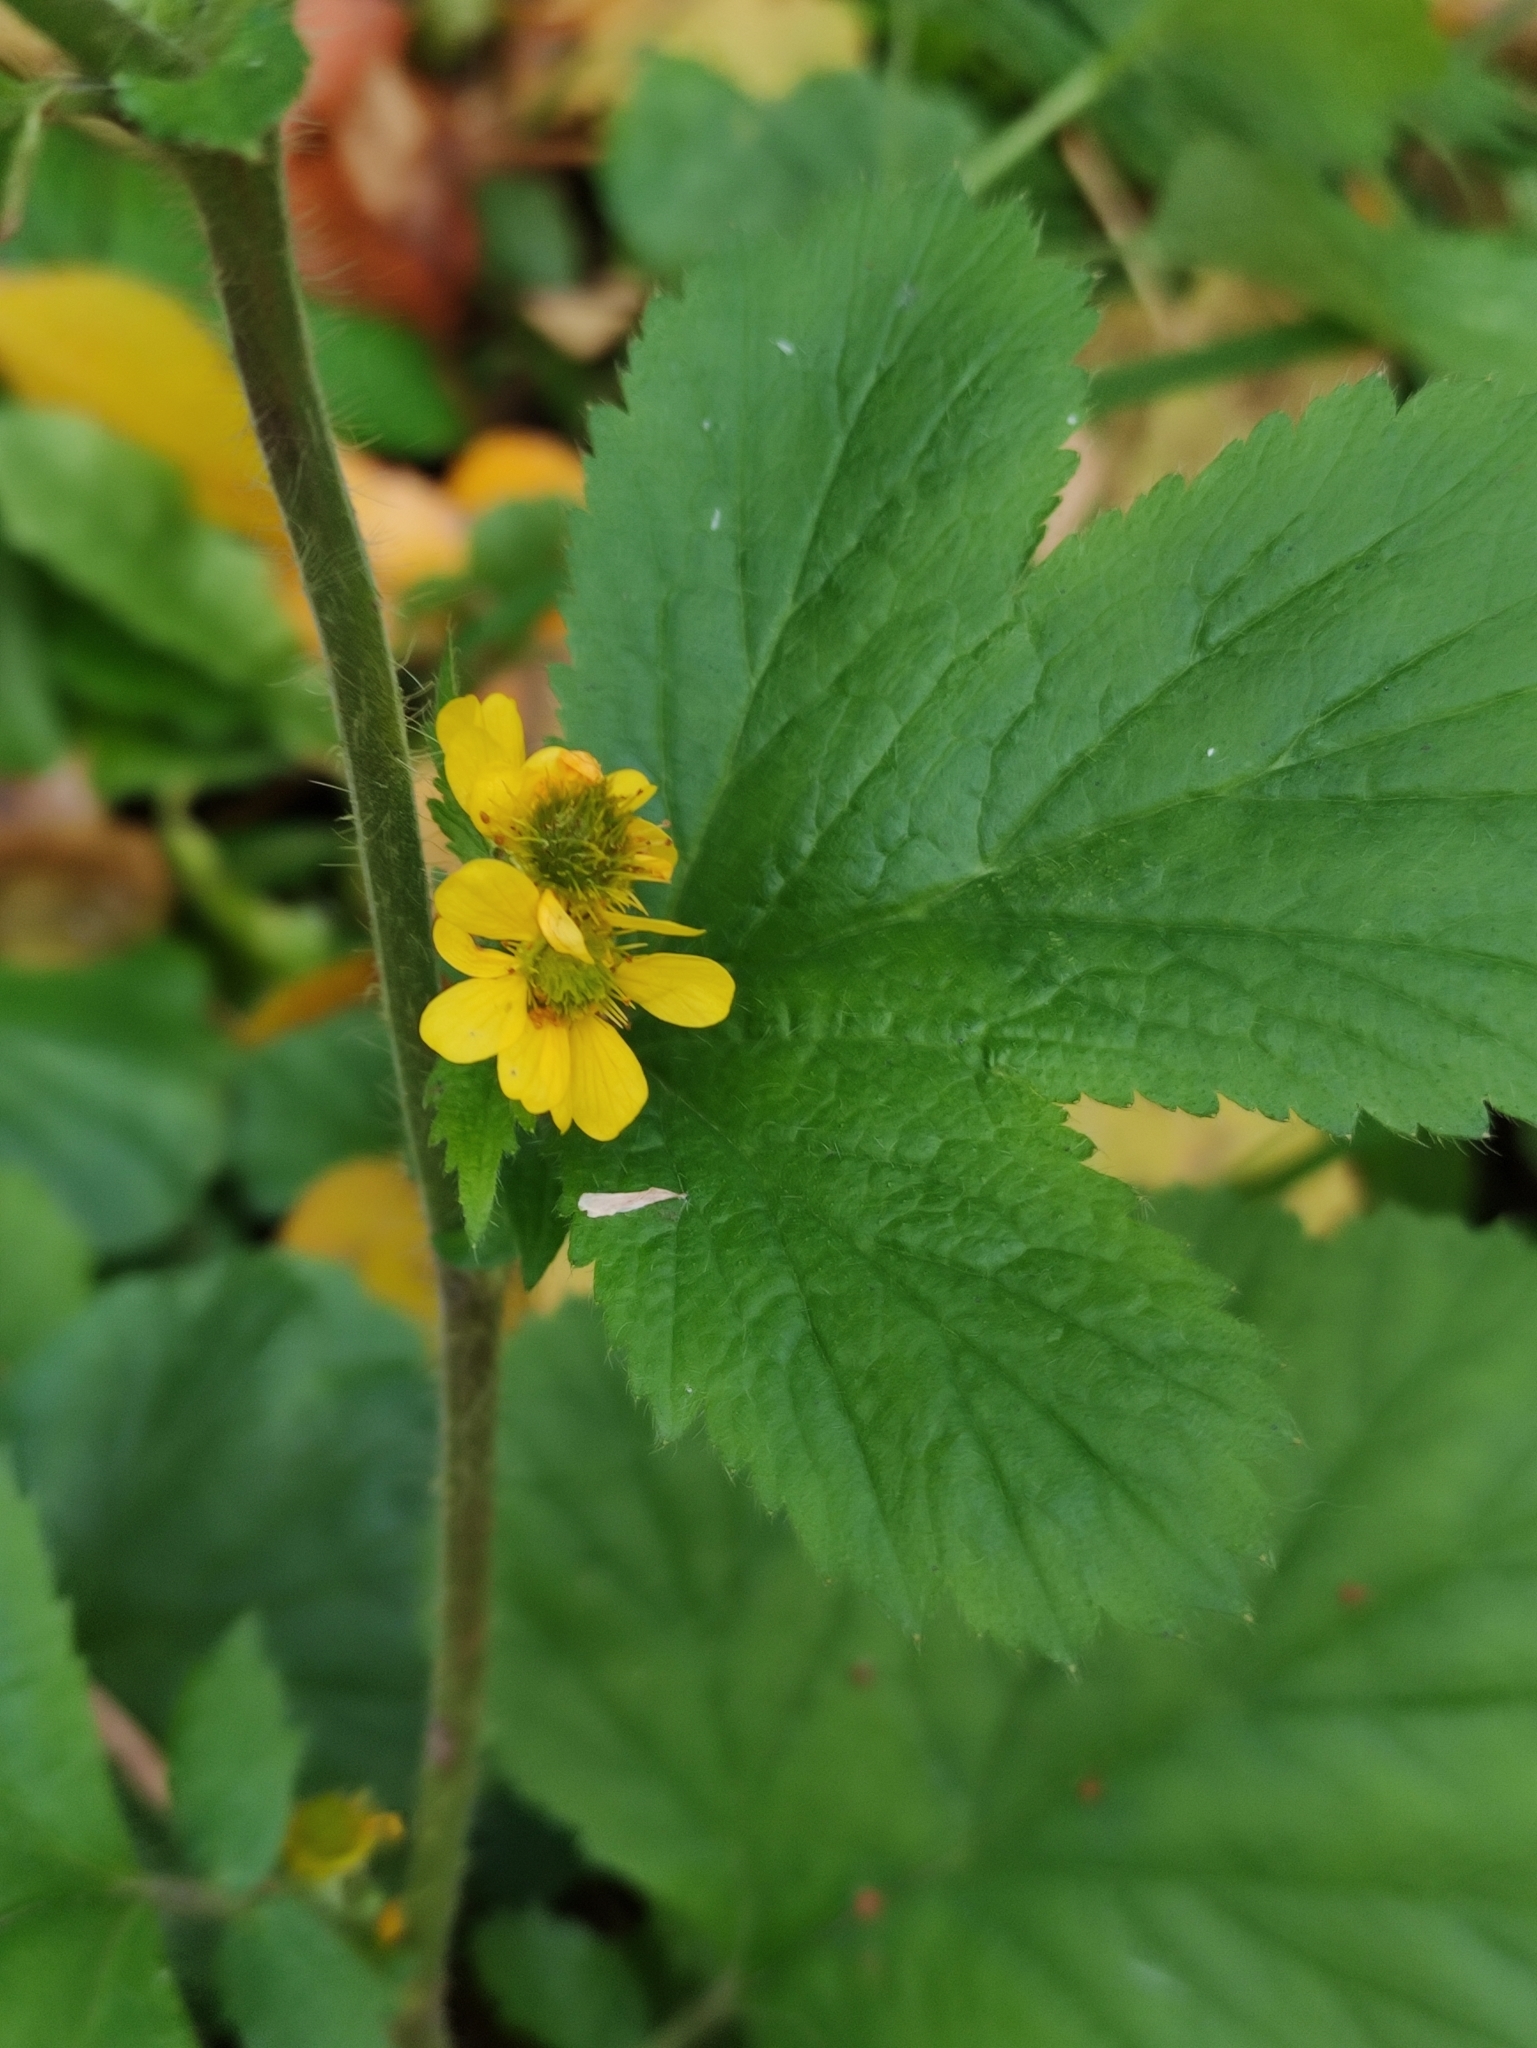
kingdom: Plantae
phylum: Tracheophyta
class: Magnoliopsida
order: Rosales
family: Rosaceae
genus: Geum
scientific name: Geum macrophyllum
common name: Large-leaved avens
